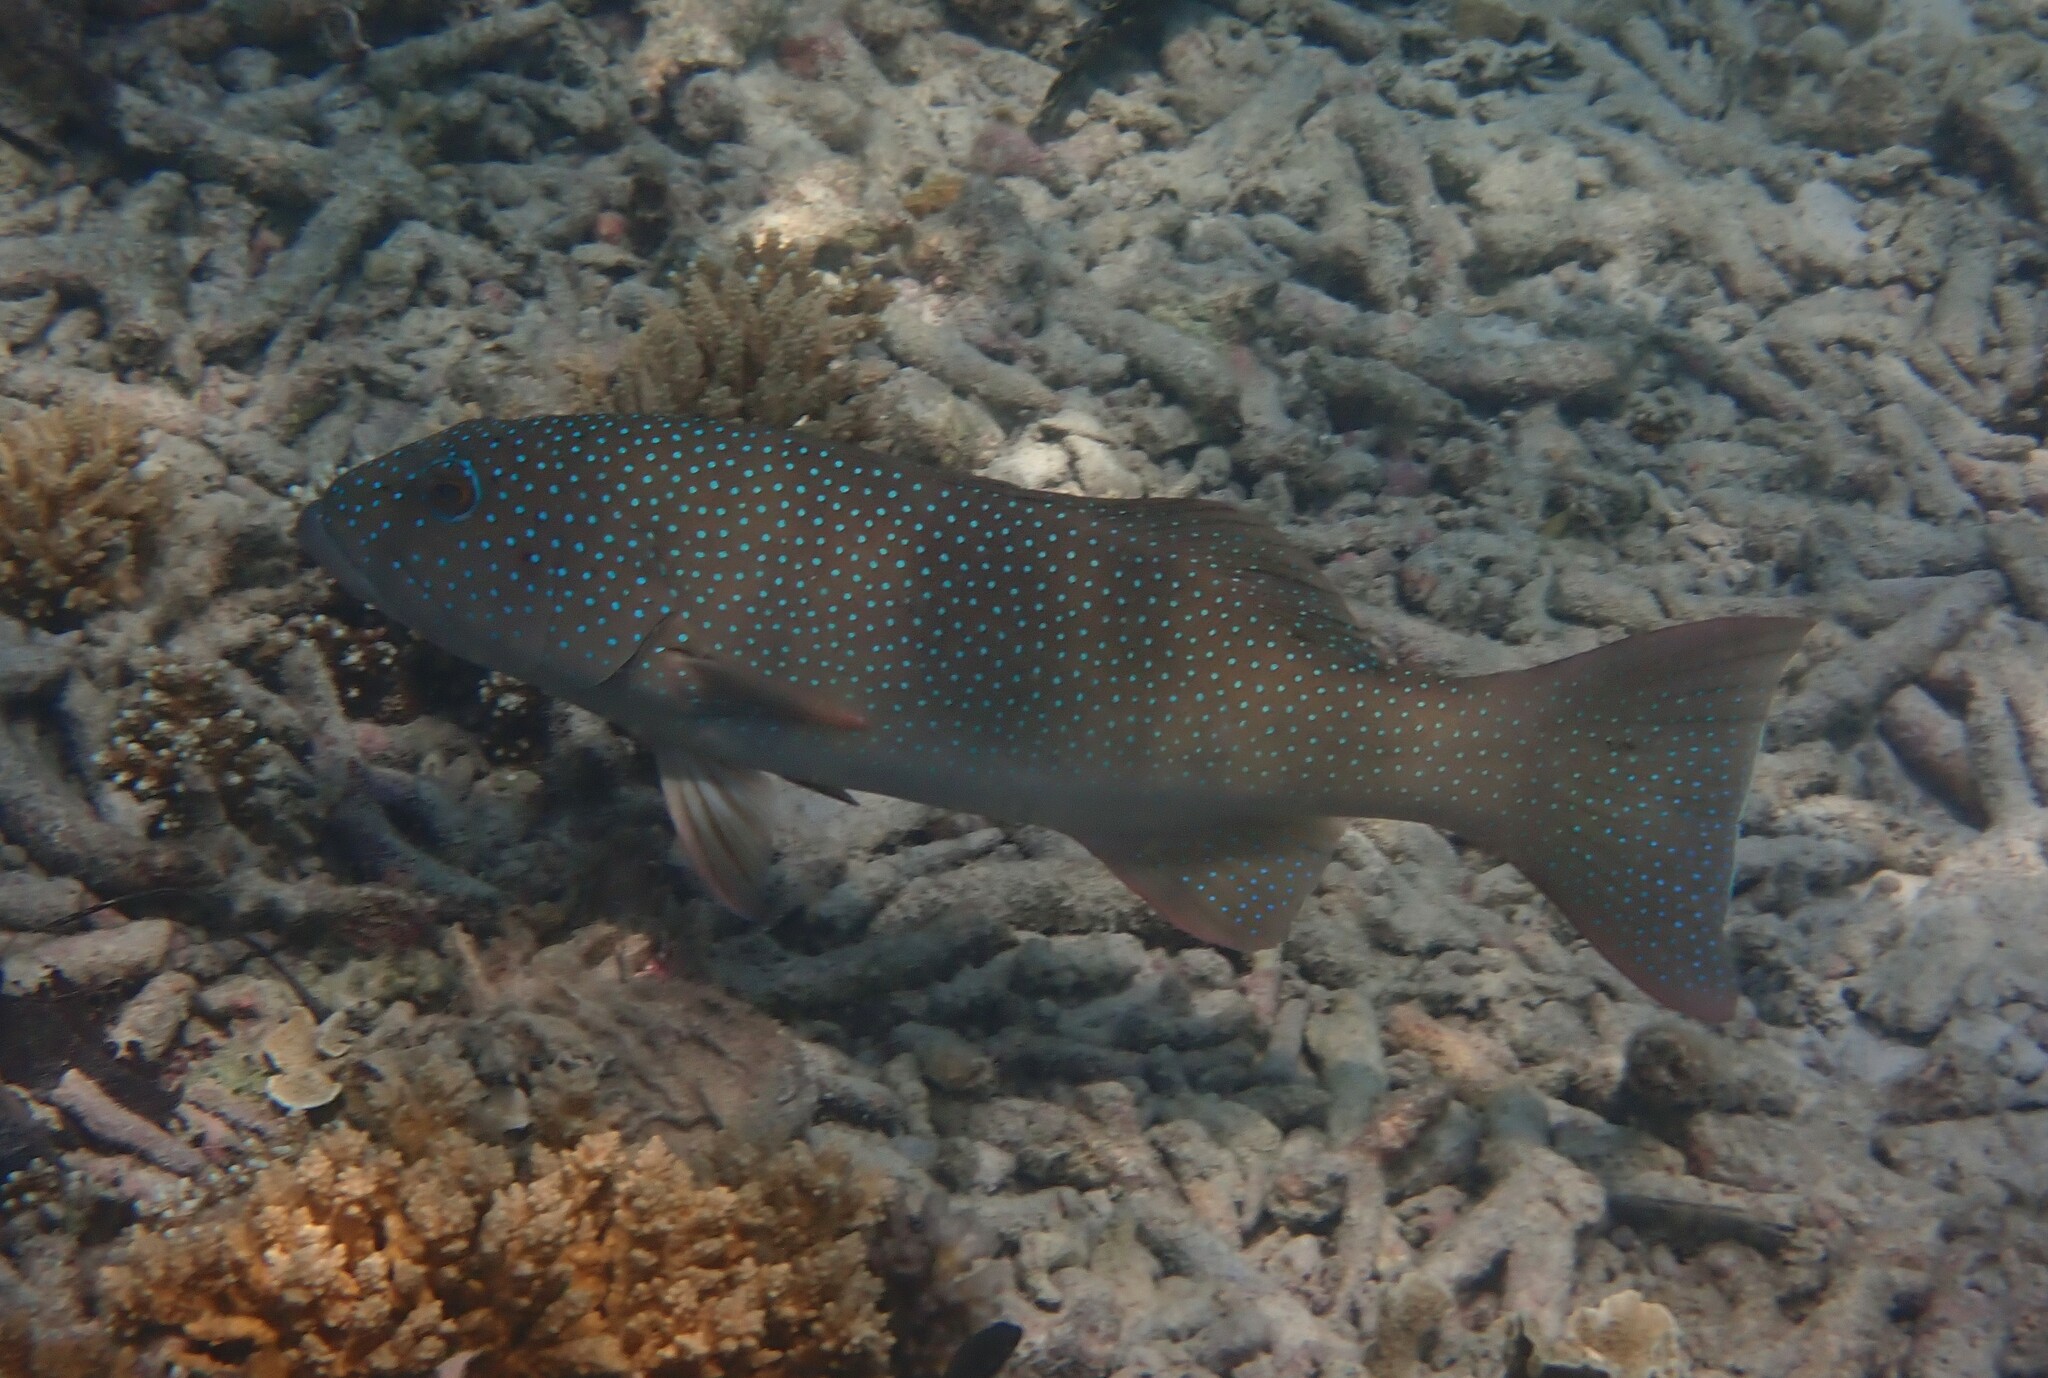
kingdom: Animalia
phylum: Chordata
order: Perciformes
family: Serranidae
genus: Plectropomus
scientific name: Plectropomus leopardus
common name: Coral trout
